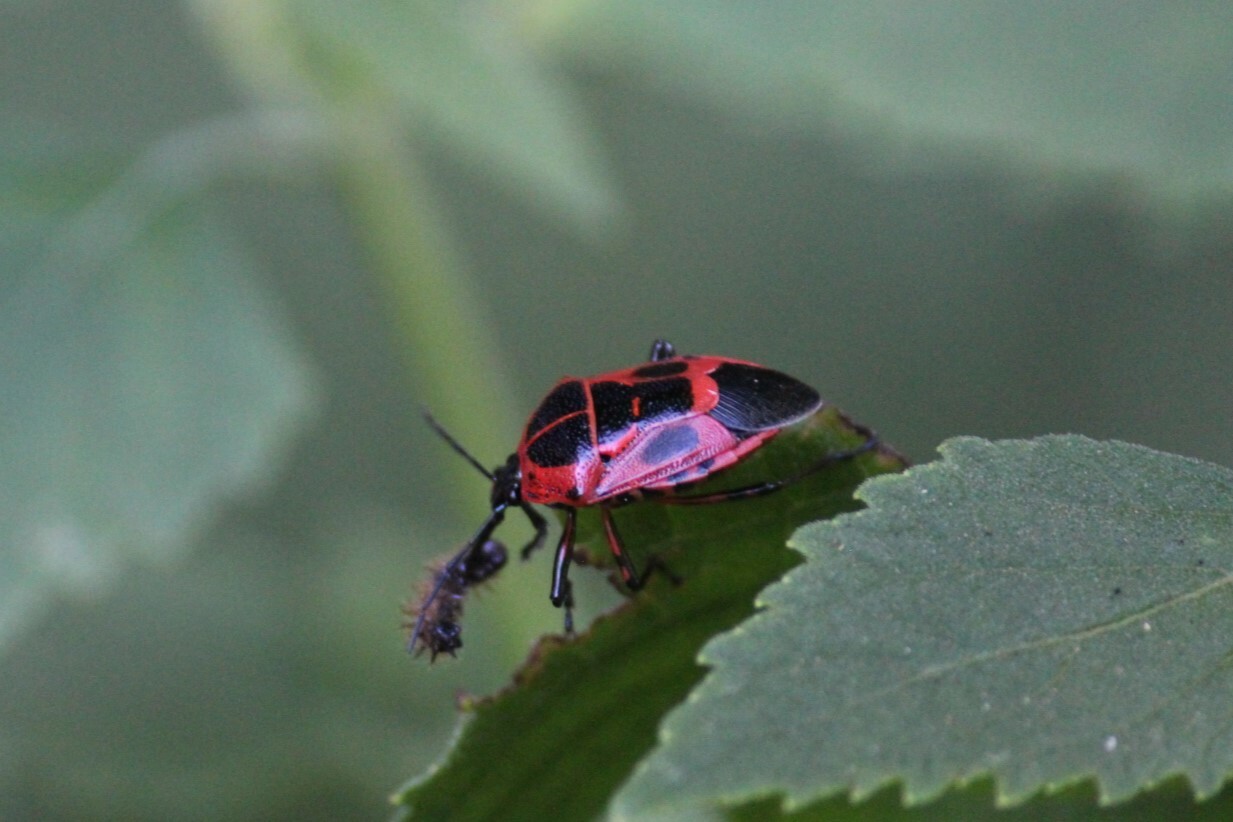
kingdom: Animalia
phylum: Arthropoda
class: Insecta
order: Hemiptera
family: Pentatomidae
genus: Oplomus
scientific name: Oplomus catena
